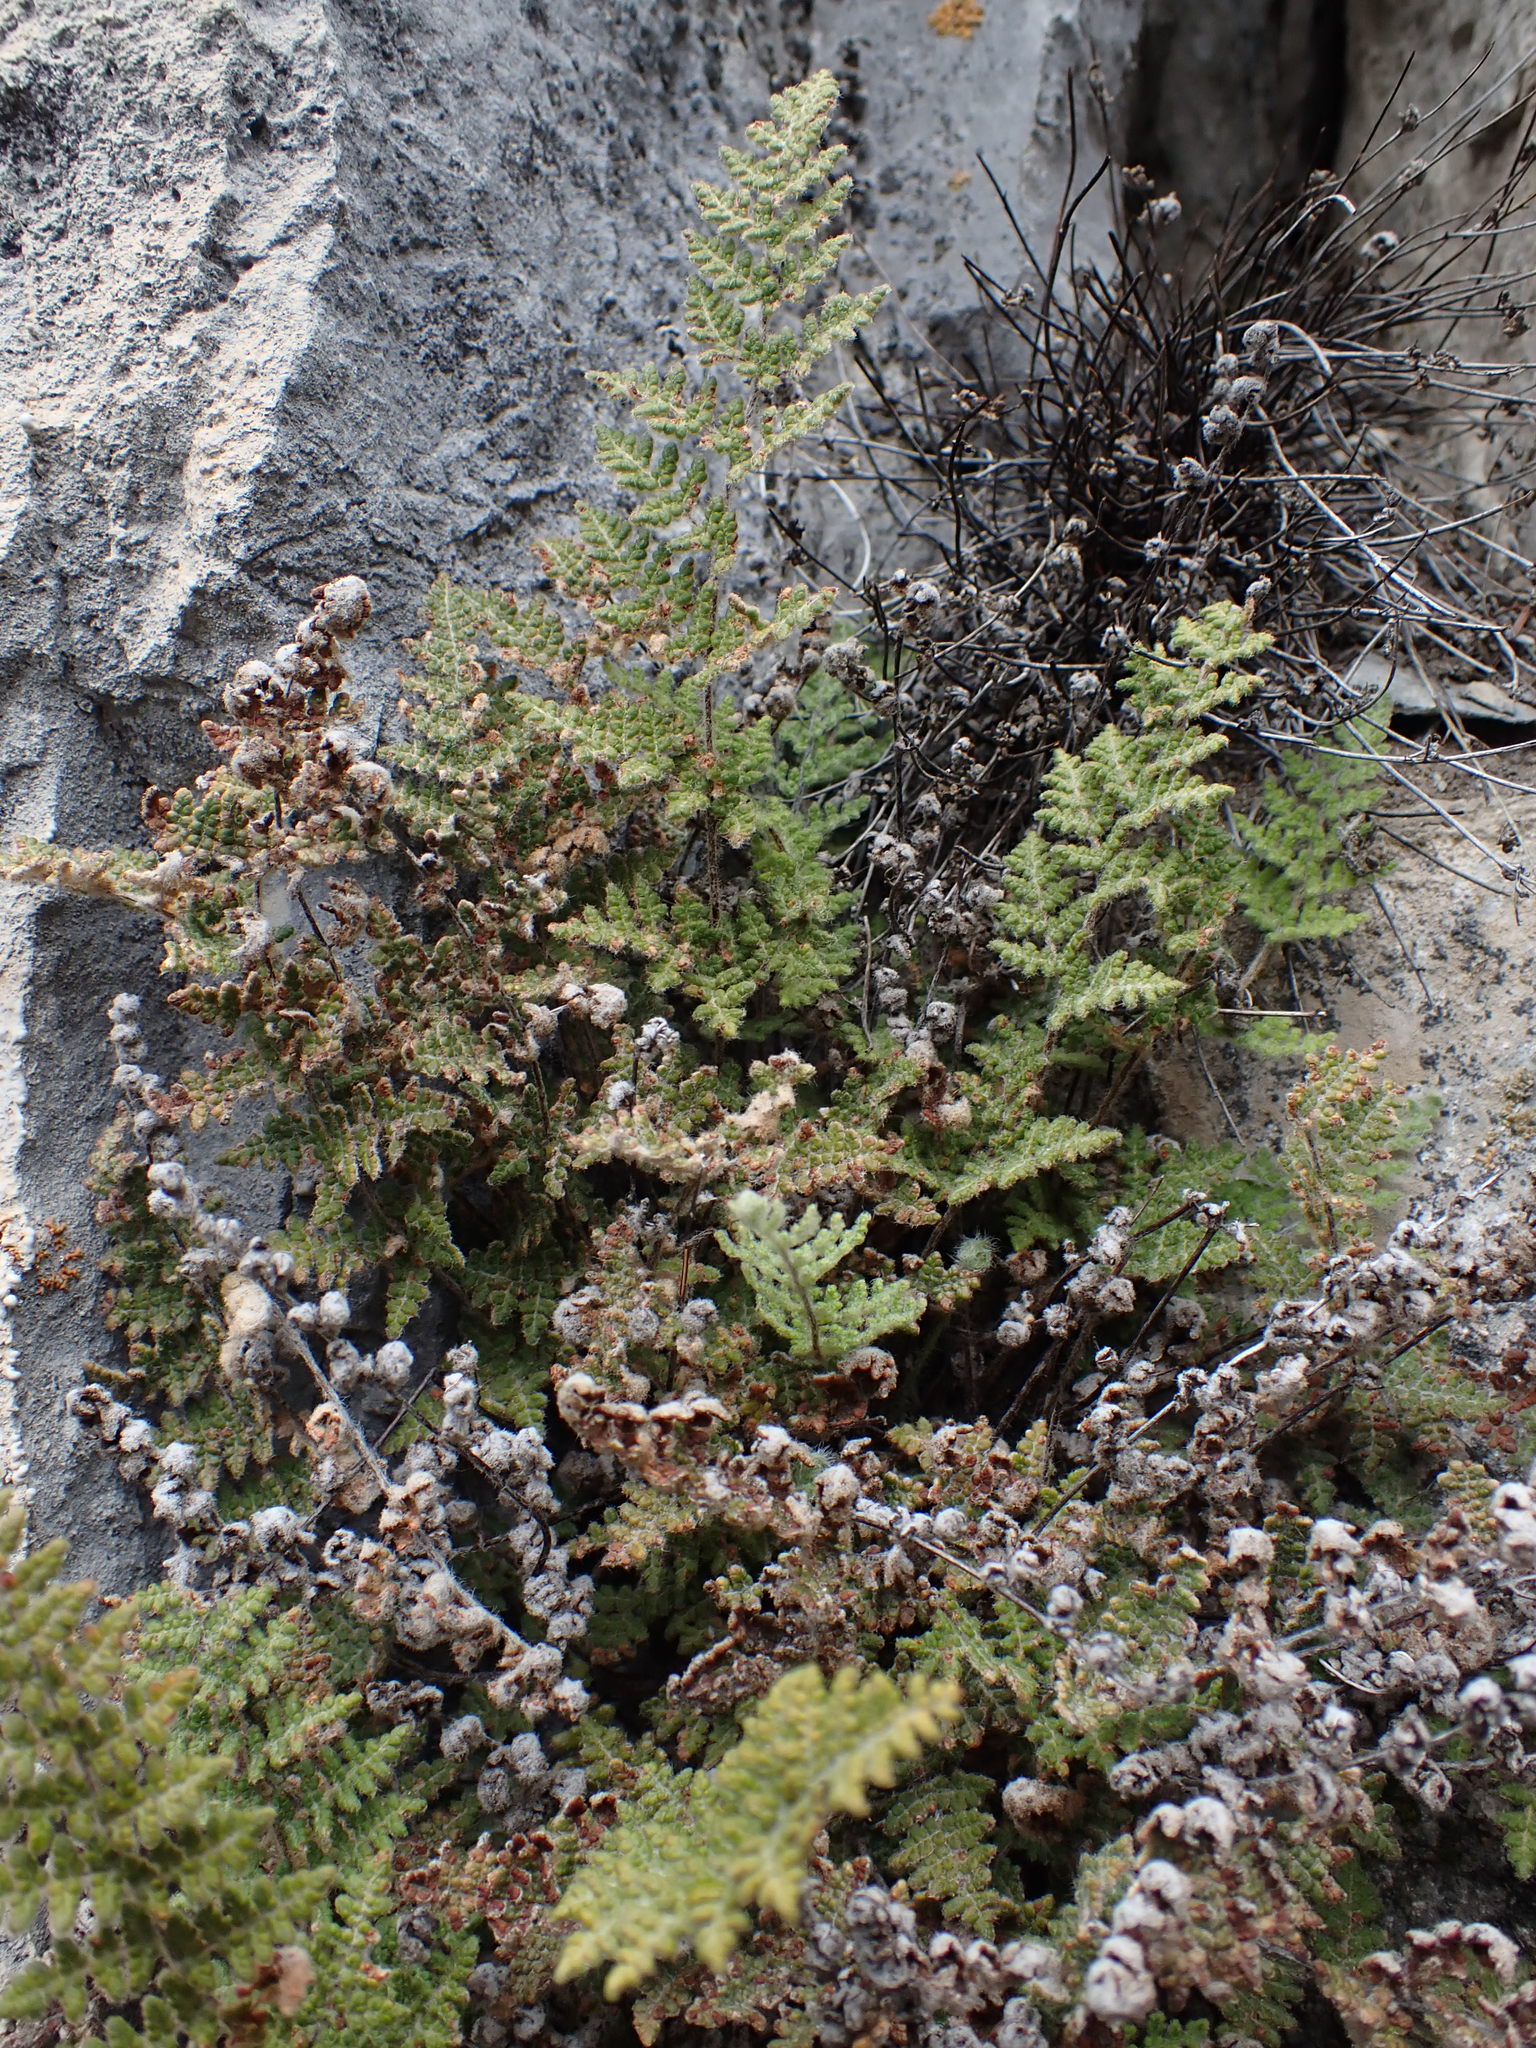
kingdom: Plantae
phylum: Tracheophyta
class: Polypodiopsida
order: Polypodiales
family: Pteridaceae
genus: Myriopteris
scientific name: Myriopteris gracilis
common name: Fee's lip fern
